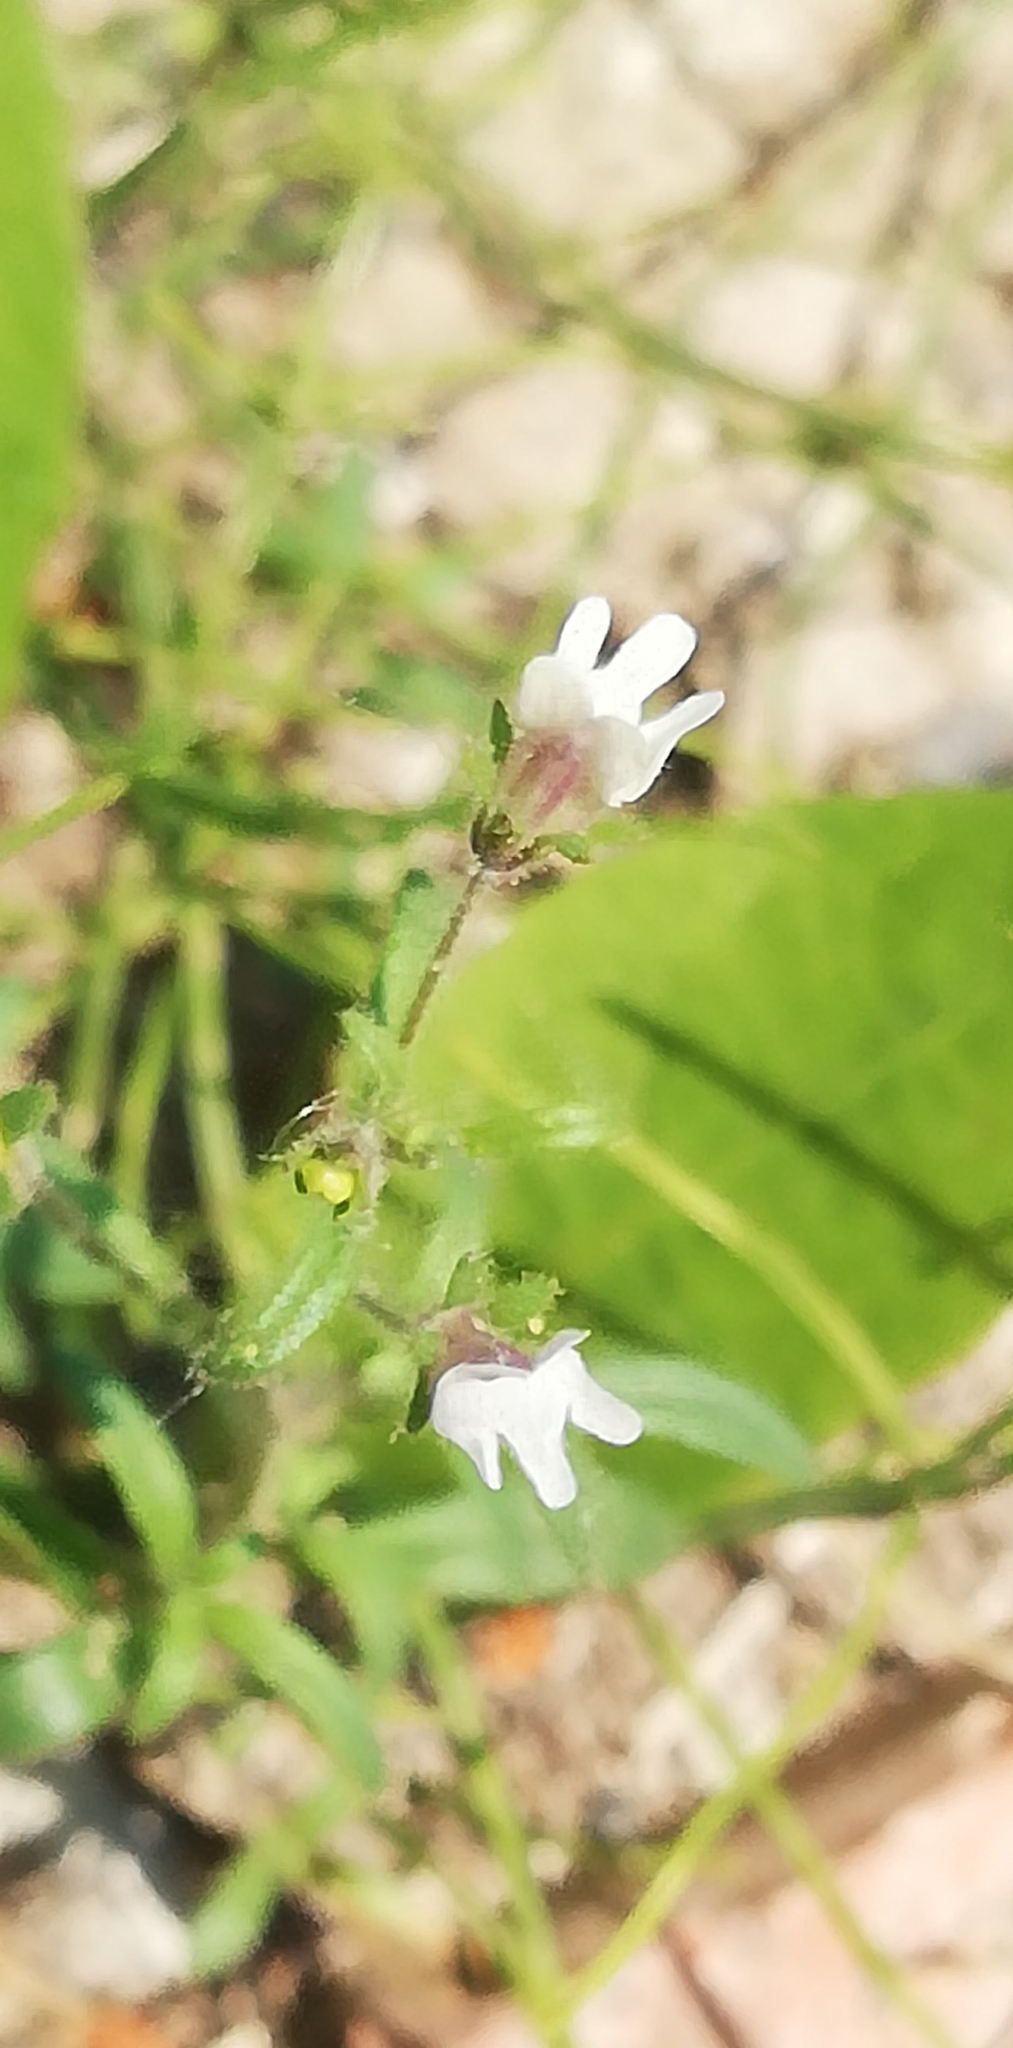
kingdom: Plantae
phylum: Tracheophyta
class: Magnoliopsida
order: Lamiales
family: Plantaginaceae
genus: Chaenorhinum
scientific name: Chaenorhinum minus
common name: Dwarf snapdragon
